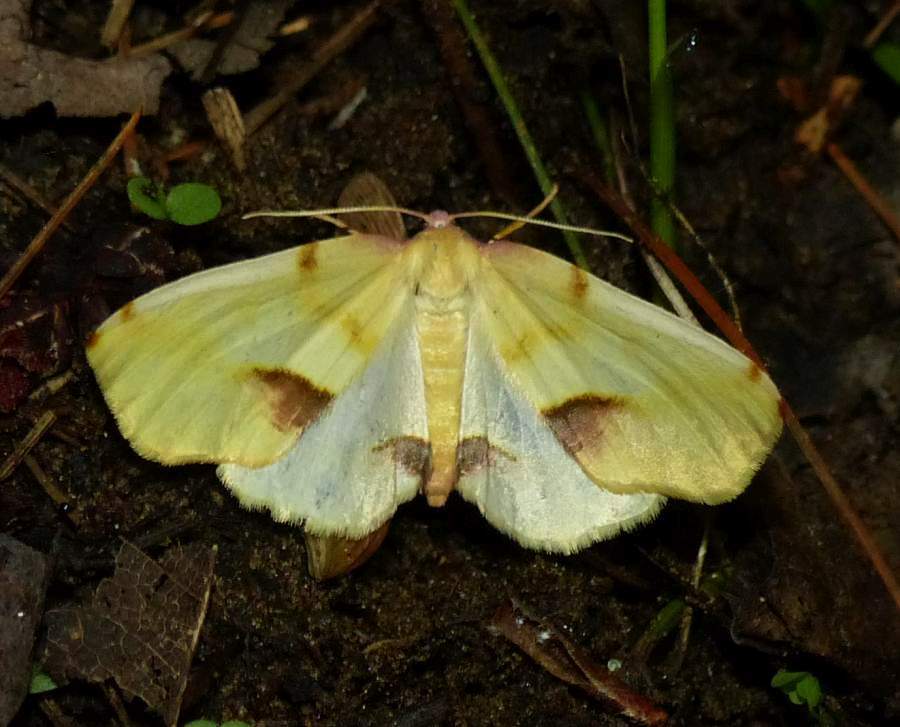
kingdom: Animalia
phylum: Arthropoda
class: Insecta
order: Lepidoptera
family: Geometridae
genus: Plagodis
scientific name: Plagodis serinaria
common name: Lemon plagodis
